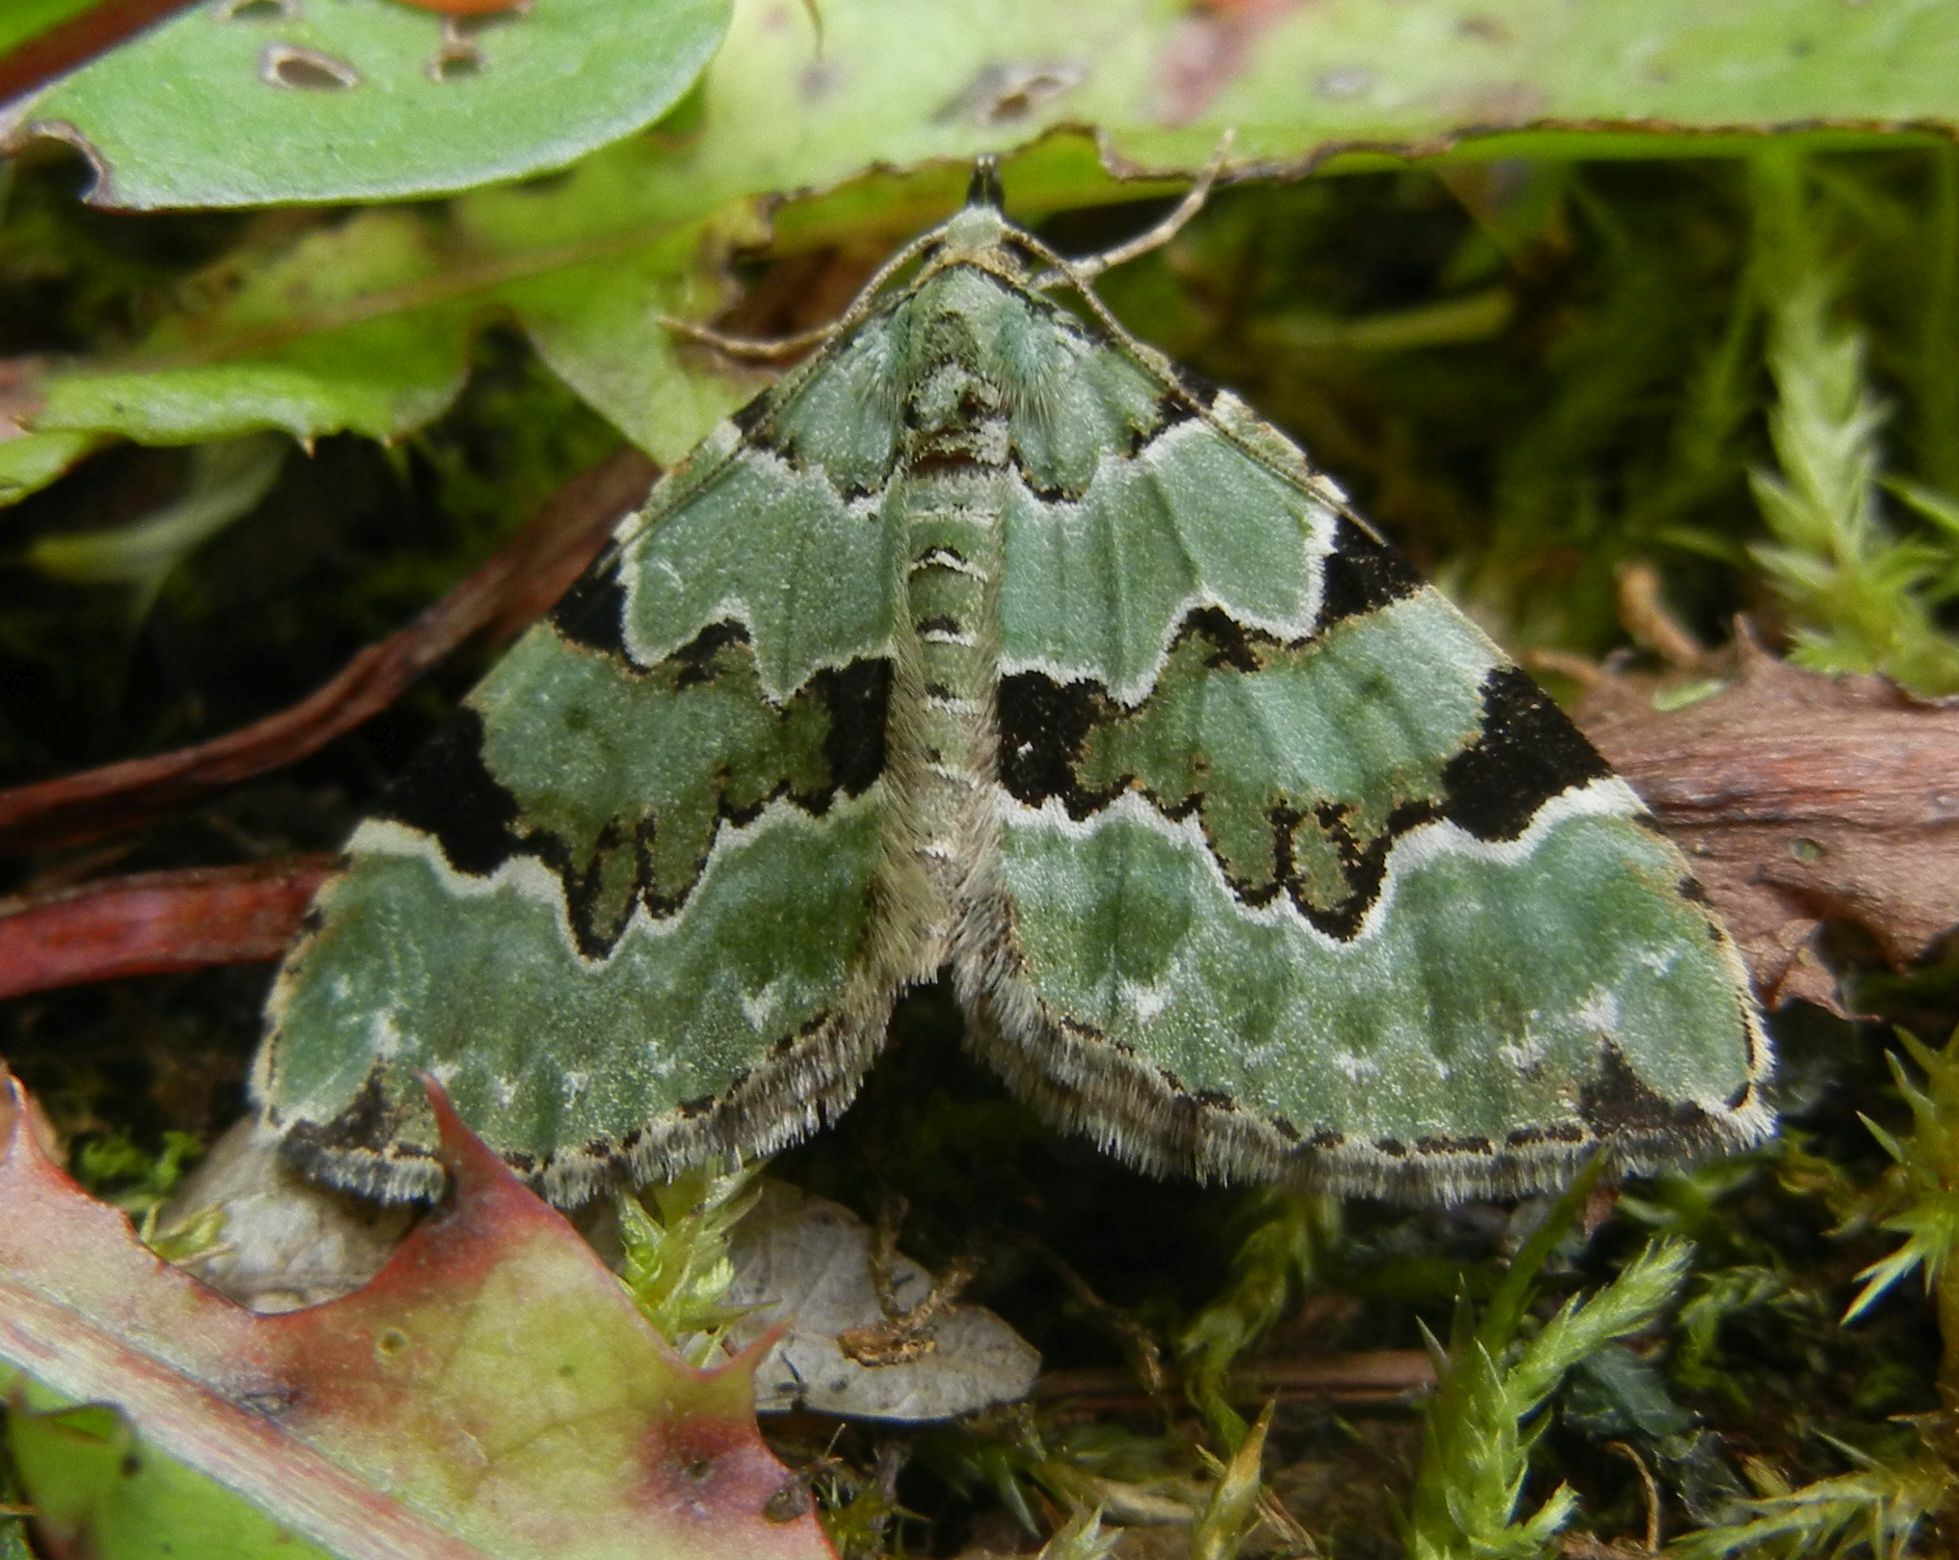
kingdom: Animalia
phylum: Arthropoda
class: Insecta
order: Lepidoptera
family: Geometridae
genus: Colostygia
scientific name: Colostygia pectinataria
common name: Green carpet
